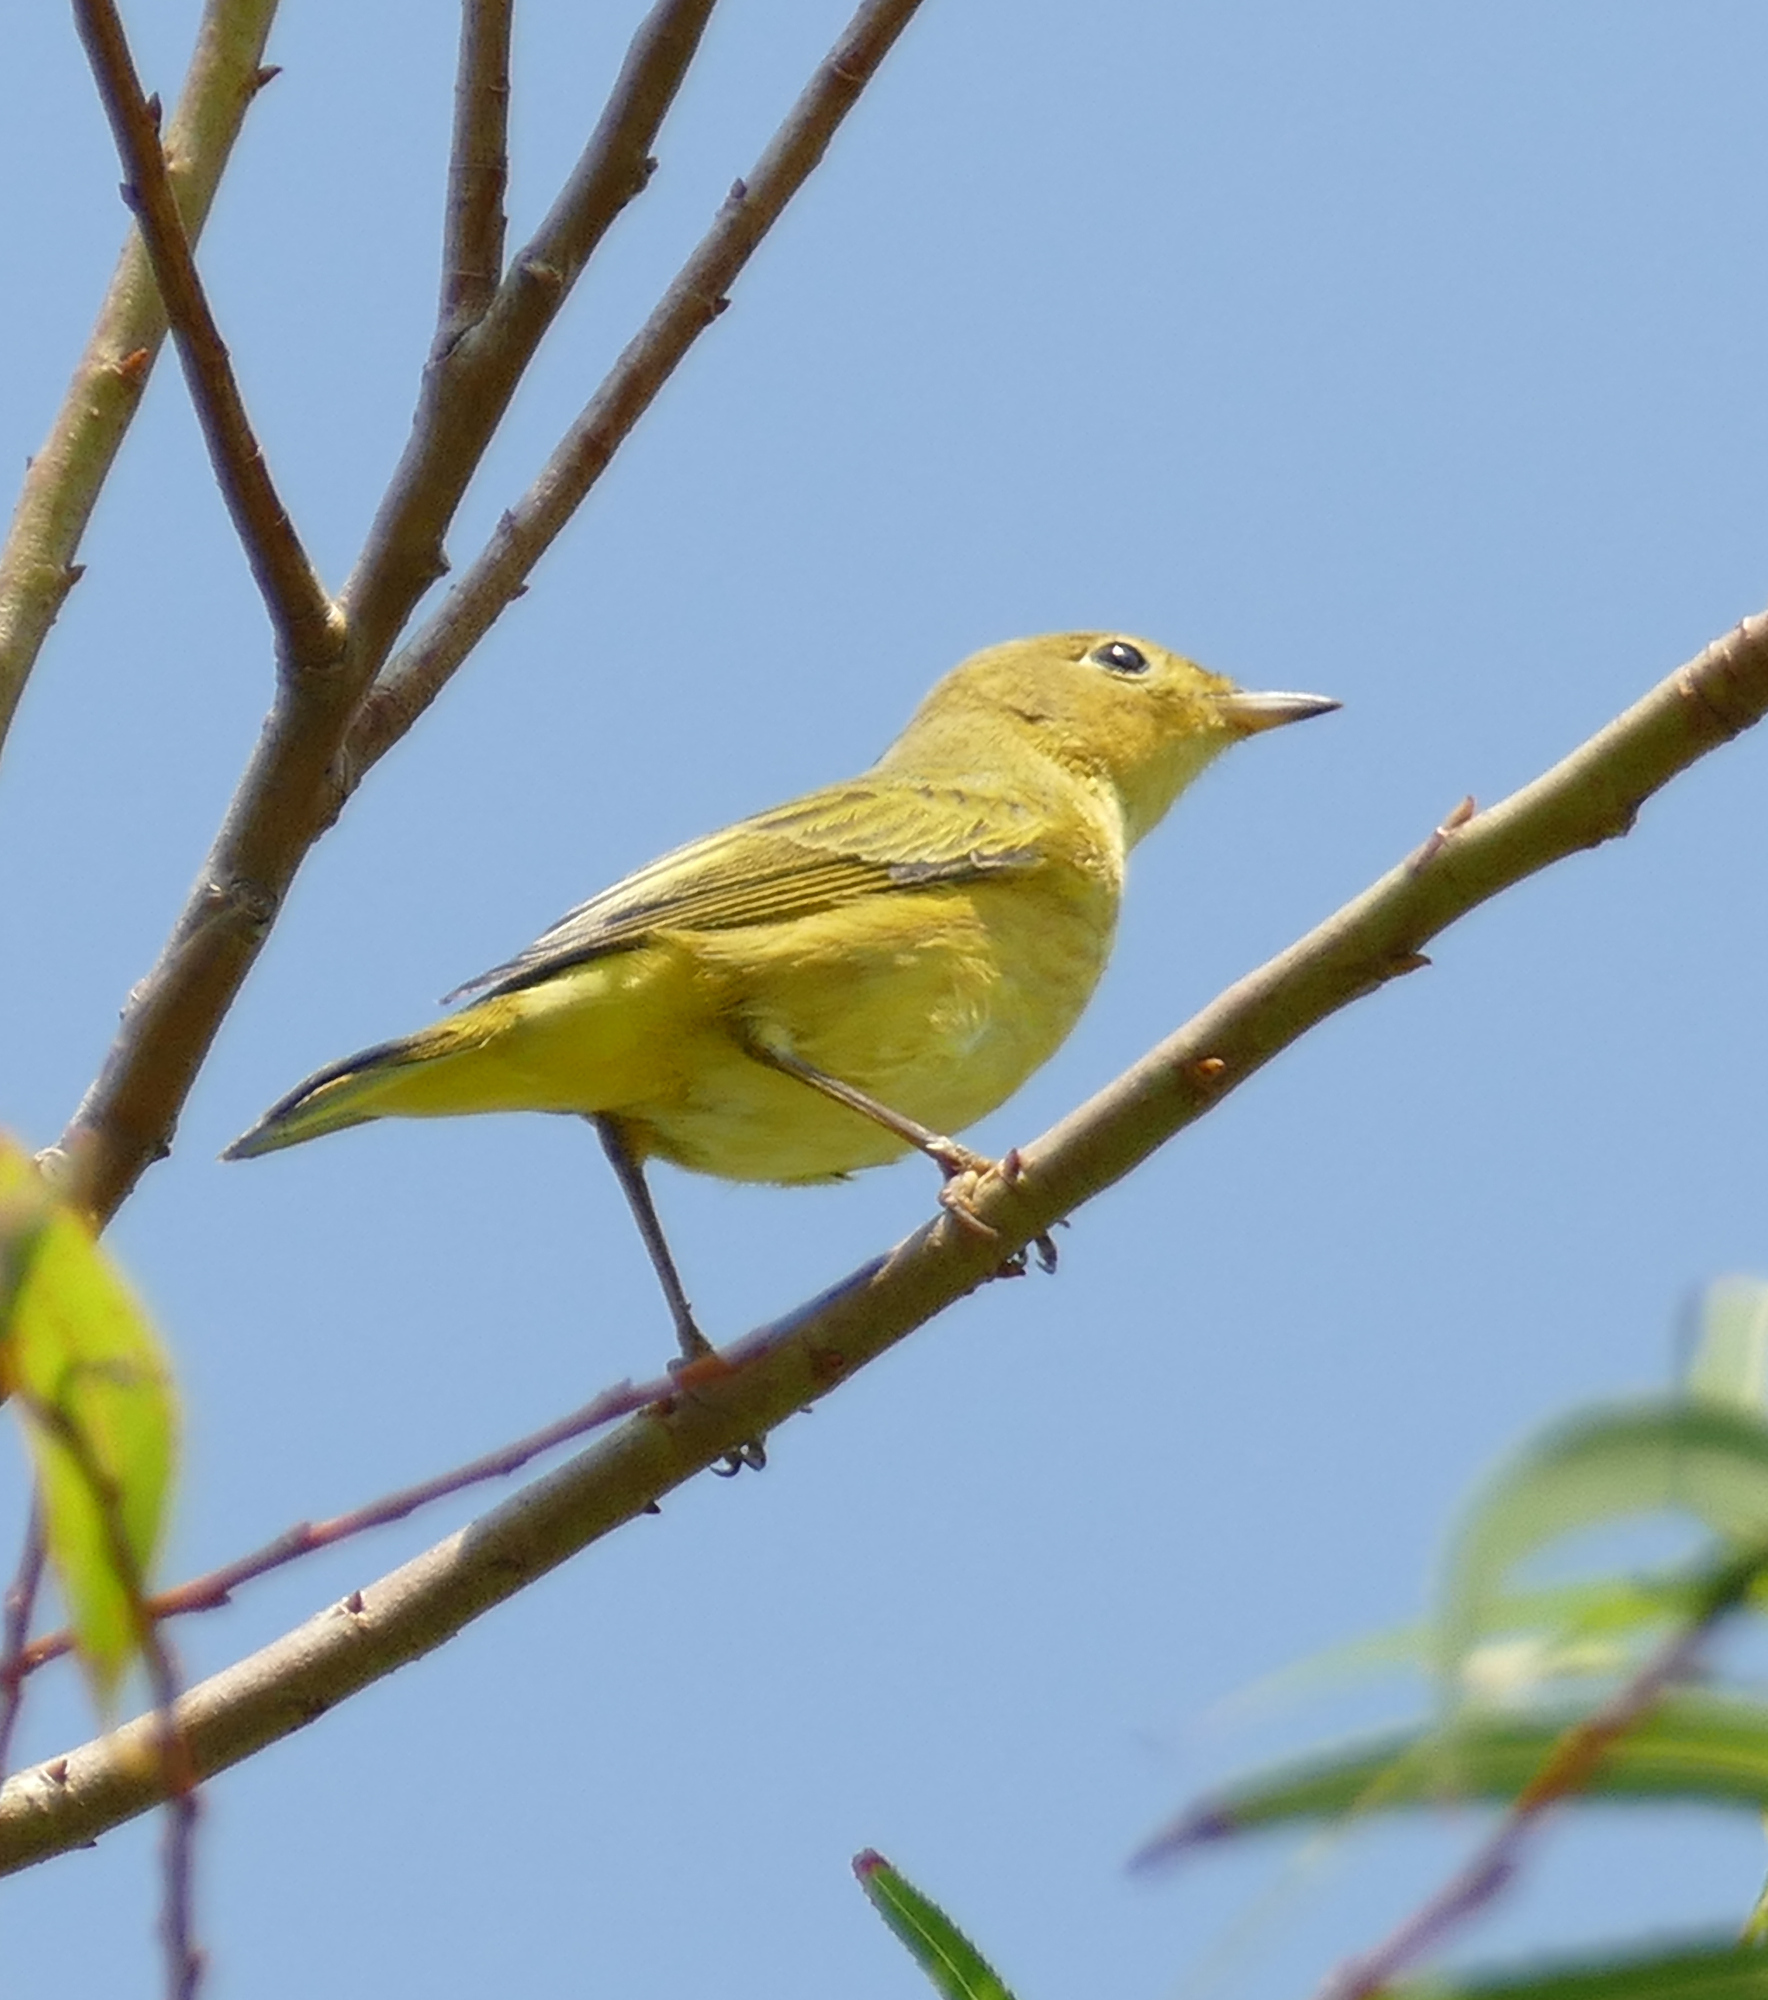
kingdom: Animalia
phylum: Chordata
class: Aves
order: Passeriformes
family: Parulidae
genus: Setophaga
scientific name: Setophaga petechia
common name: Yellow warbler
